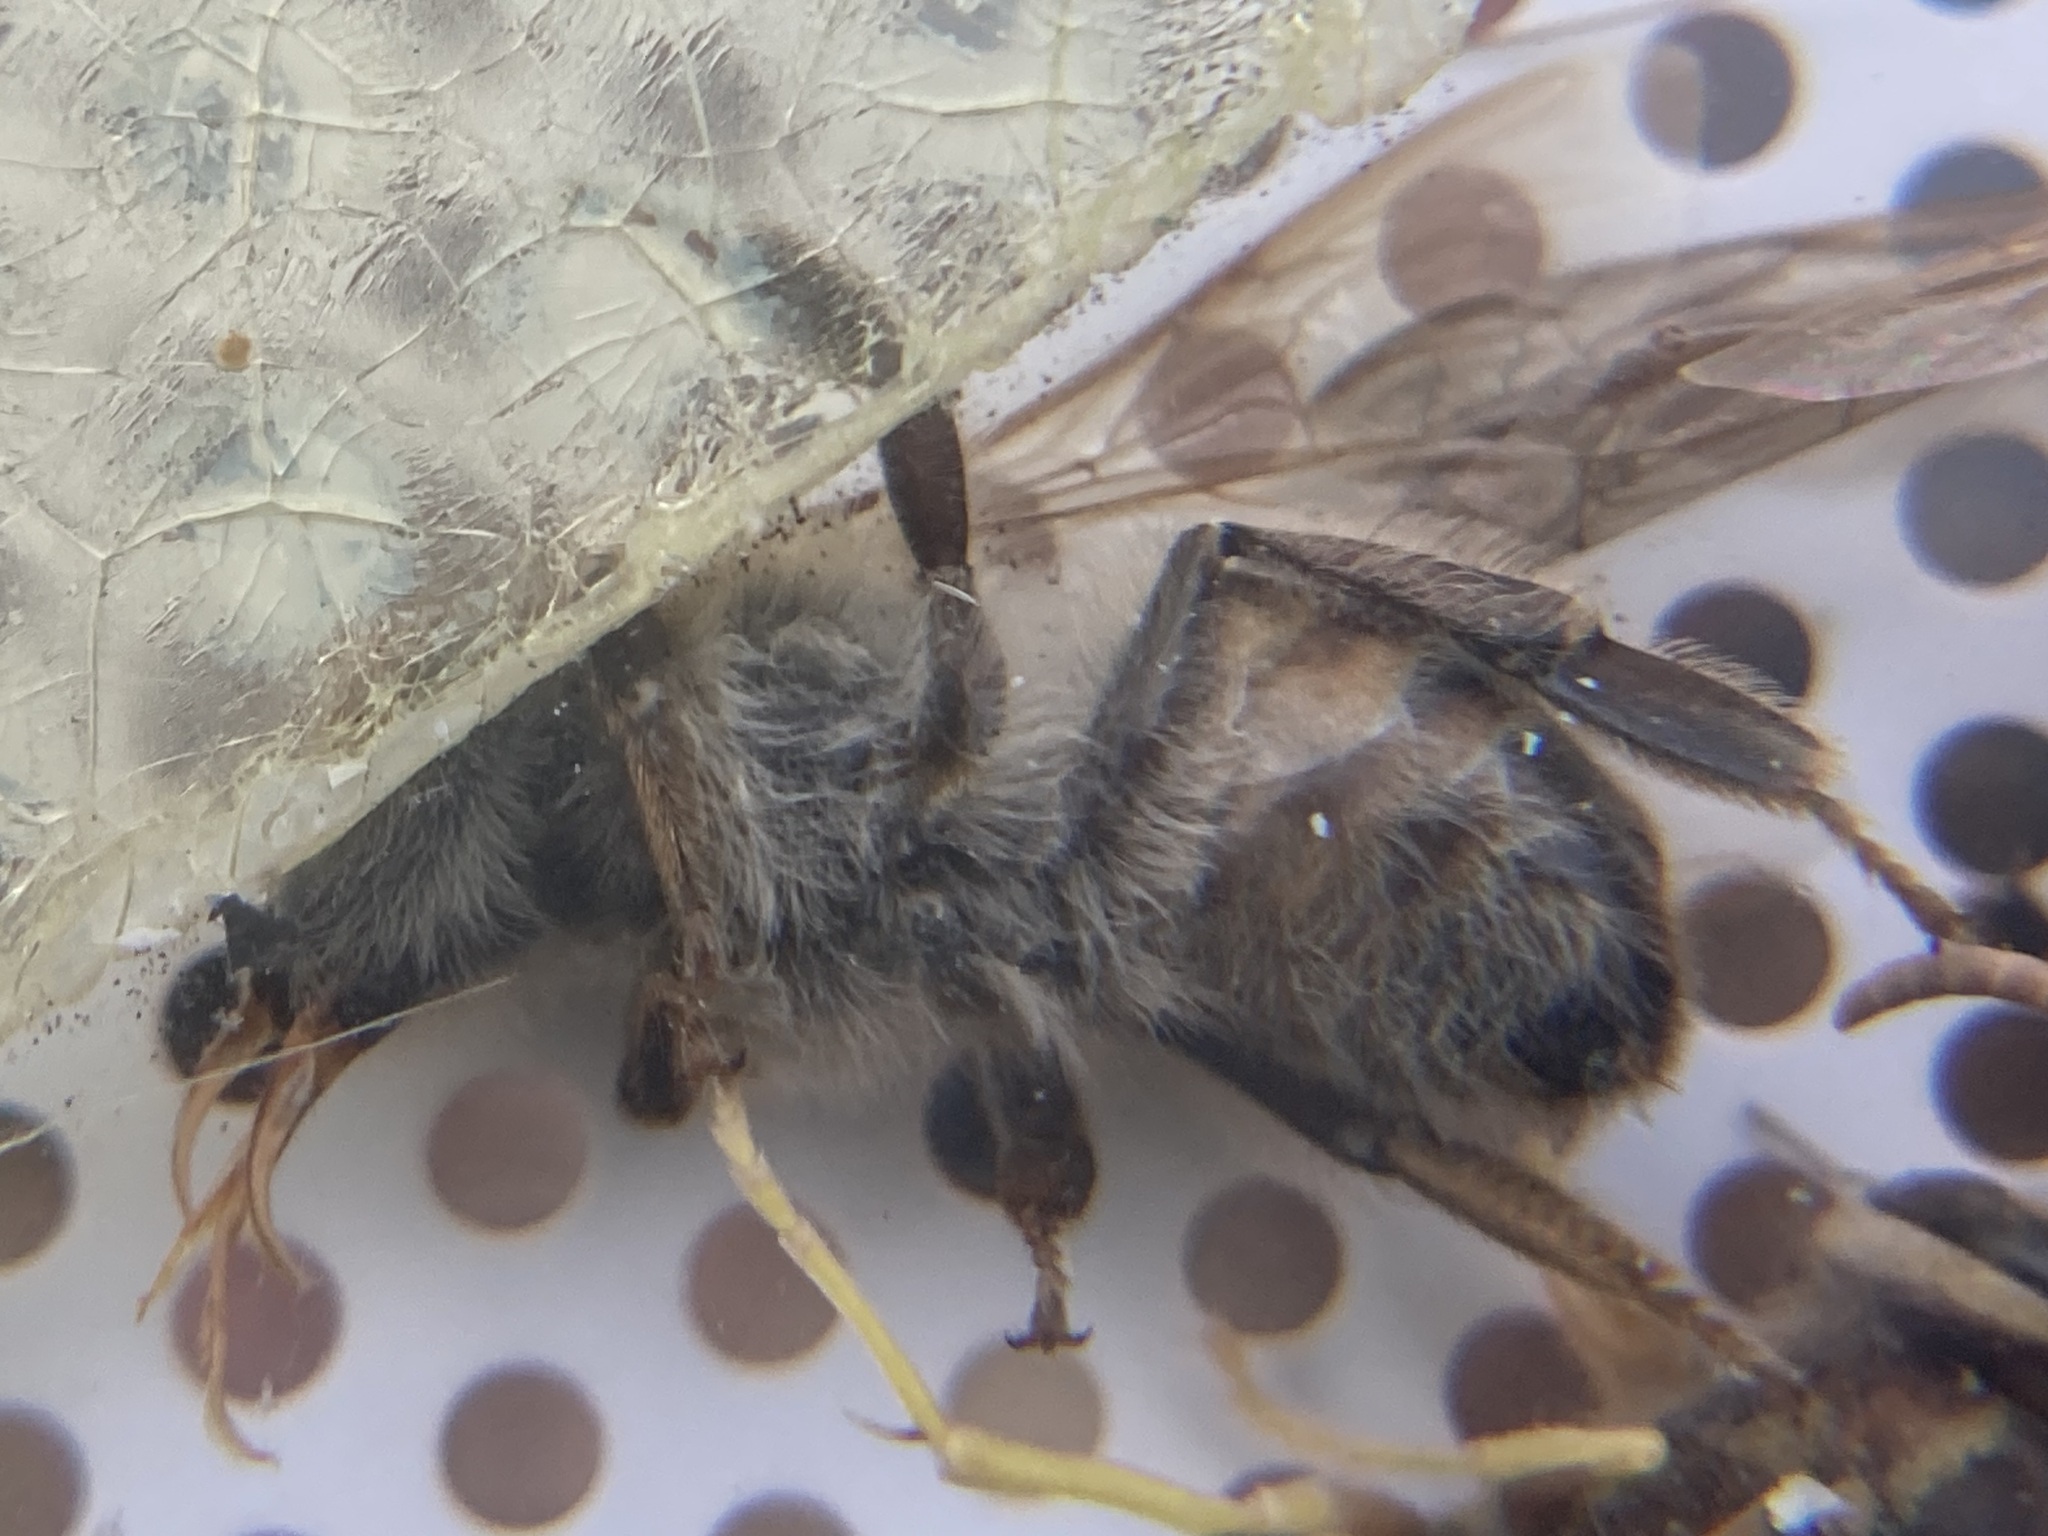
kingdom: Animalia
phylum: Arthropoda
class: Insecta
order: Hymenoptera
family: Apidae
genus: Apis
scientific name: Apis mellifera
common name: Honey bee
